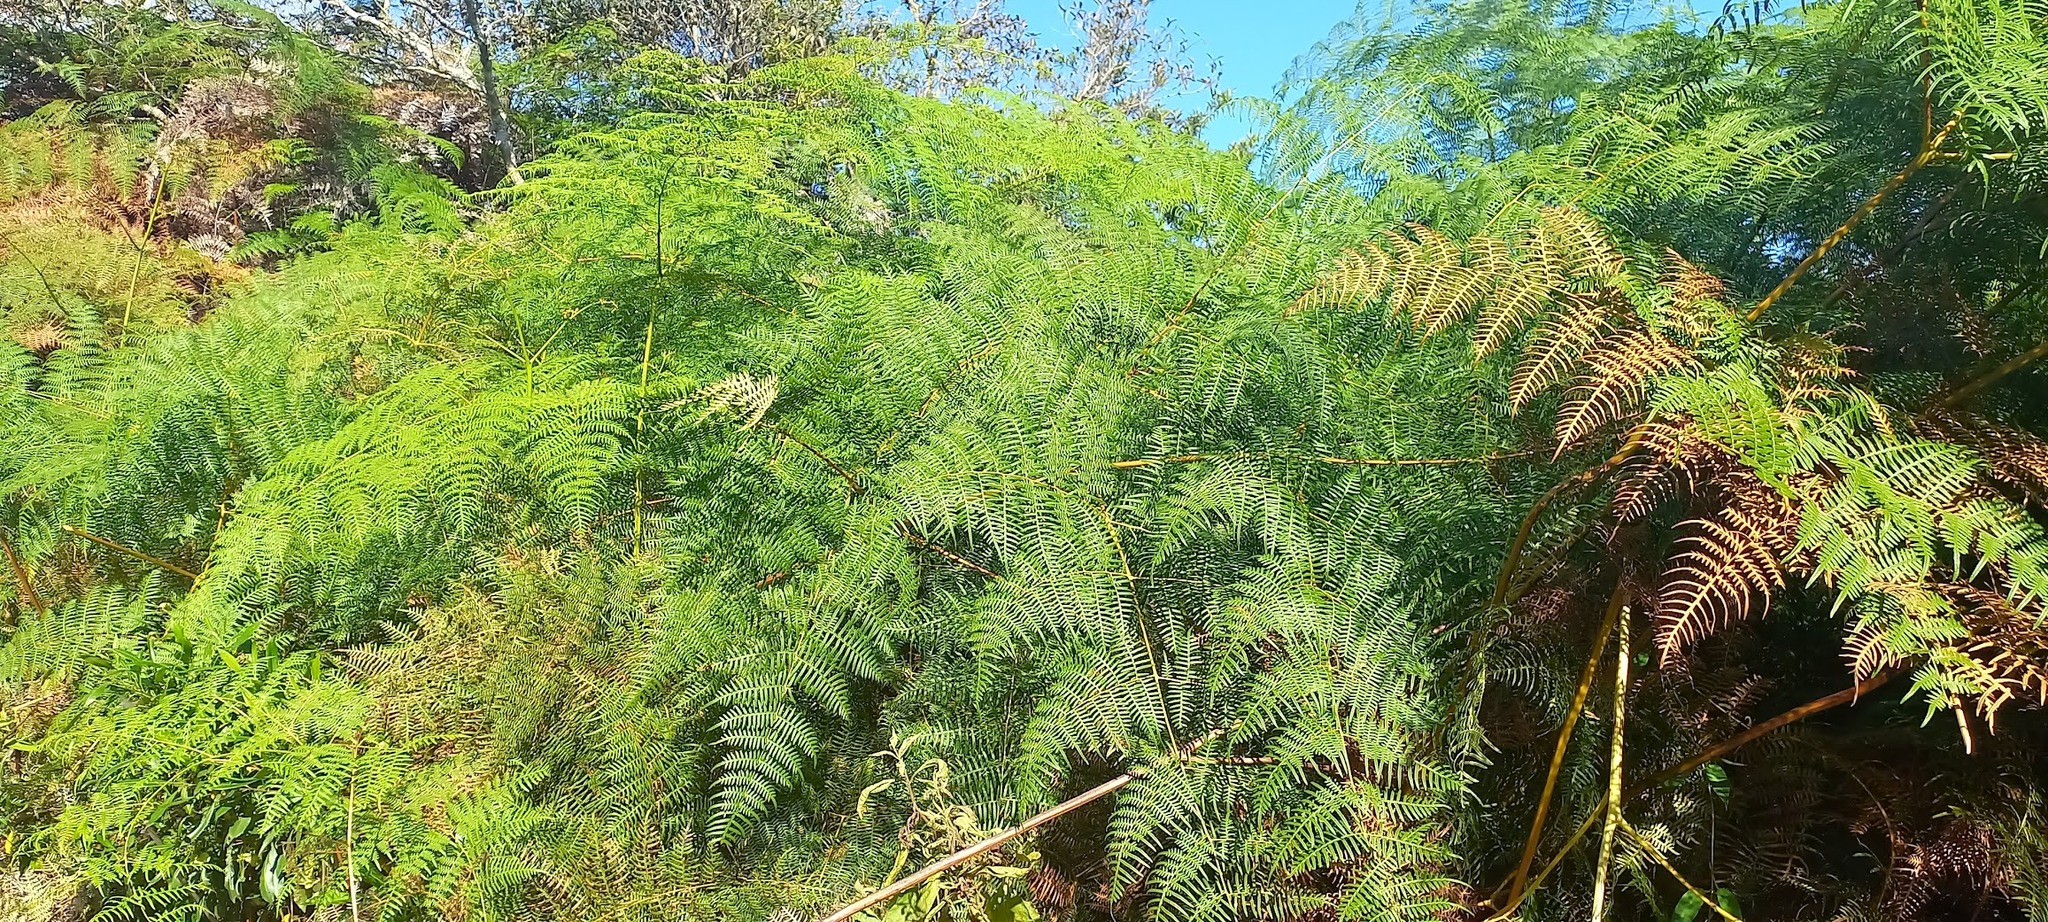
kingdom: Plantae
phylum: Tracheophyta
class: Polypodiopsida
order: Polypodiales
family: Dennstaedtiaceae
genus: Pteridium
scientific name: Pteridium esculentum
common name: Bracken fern
